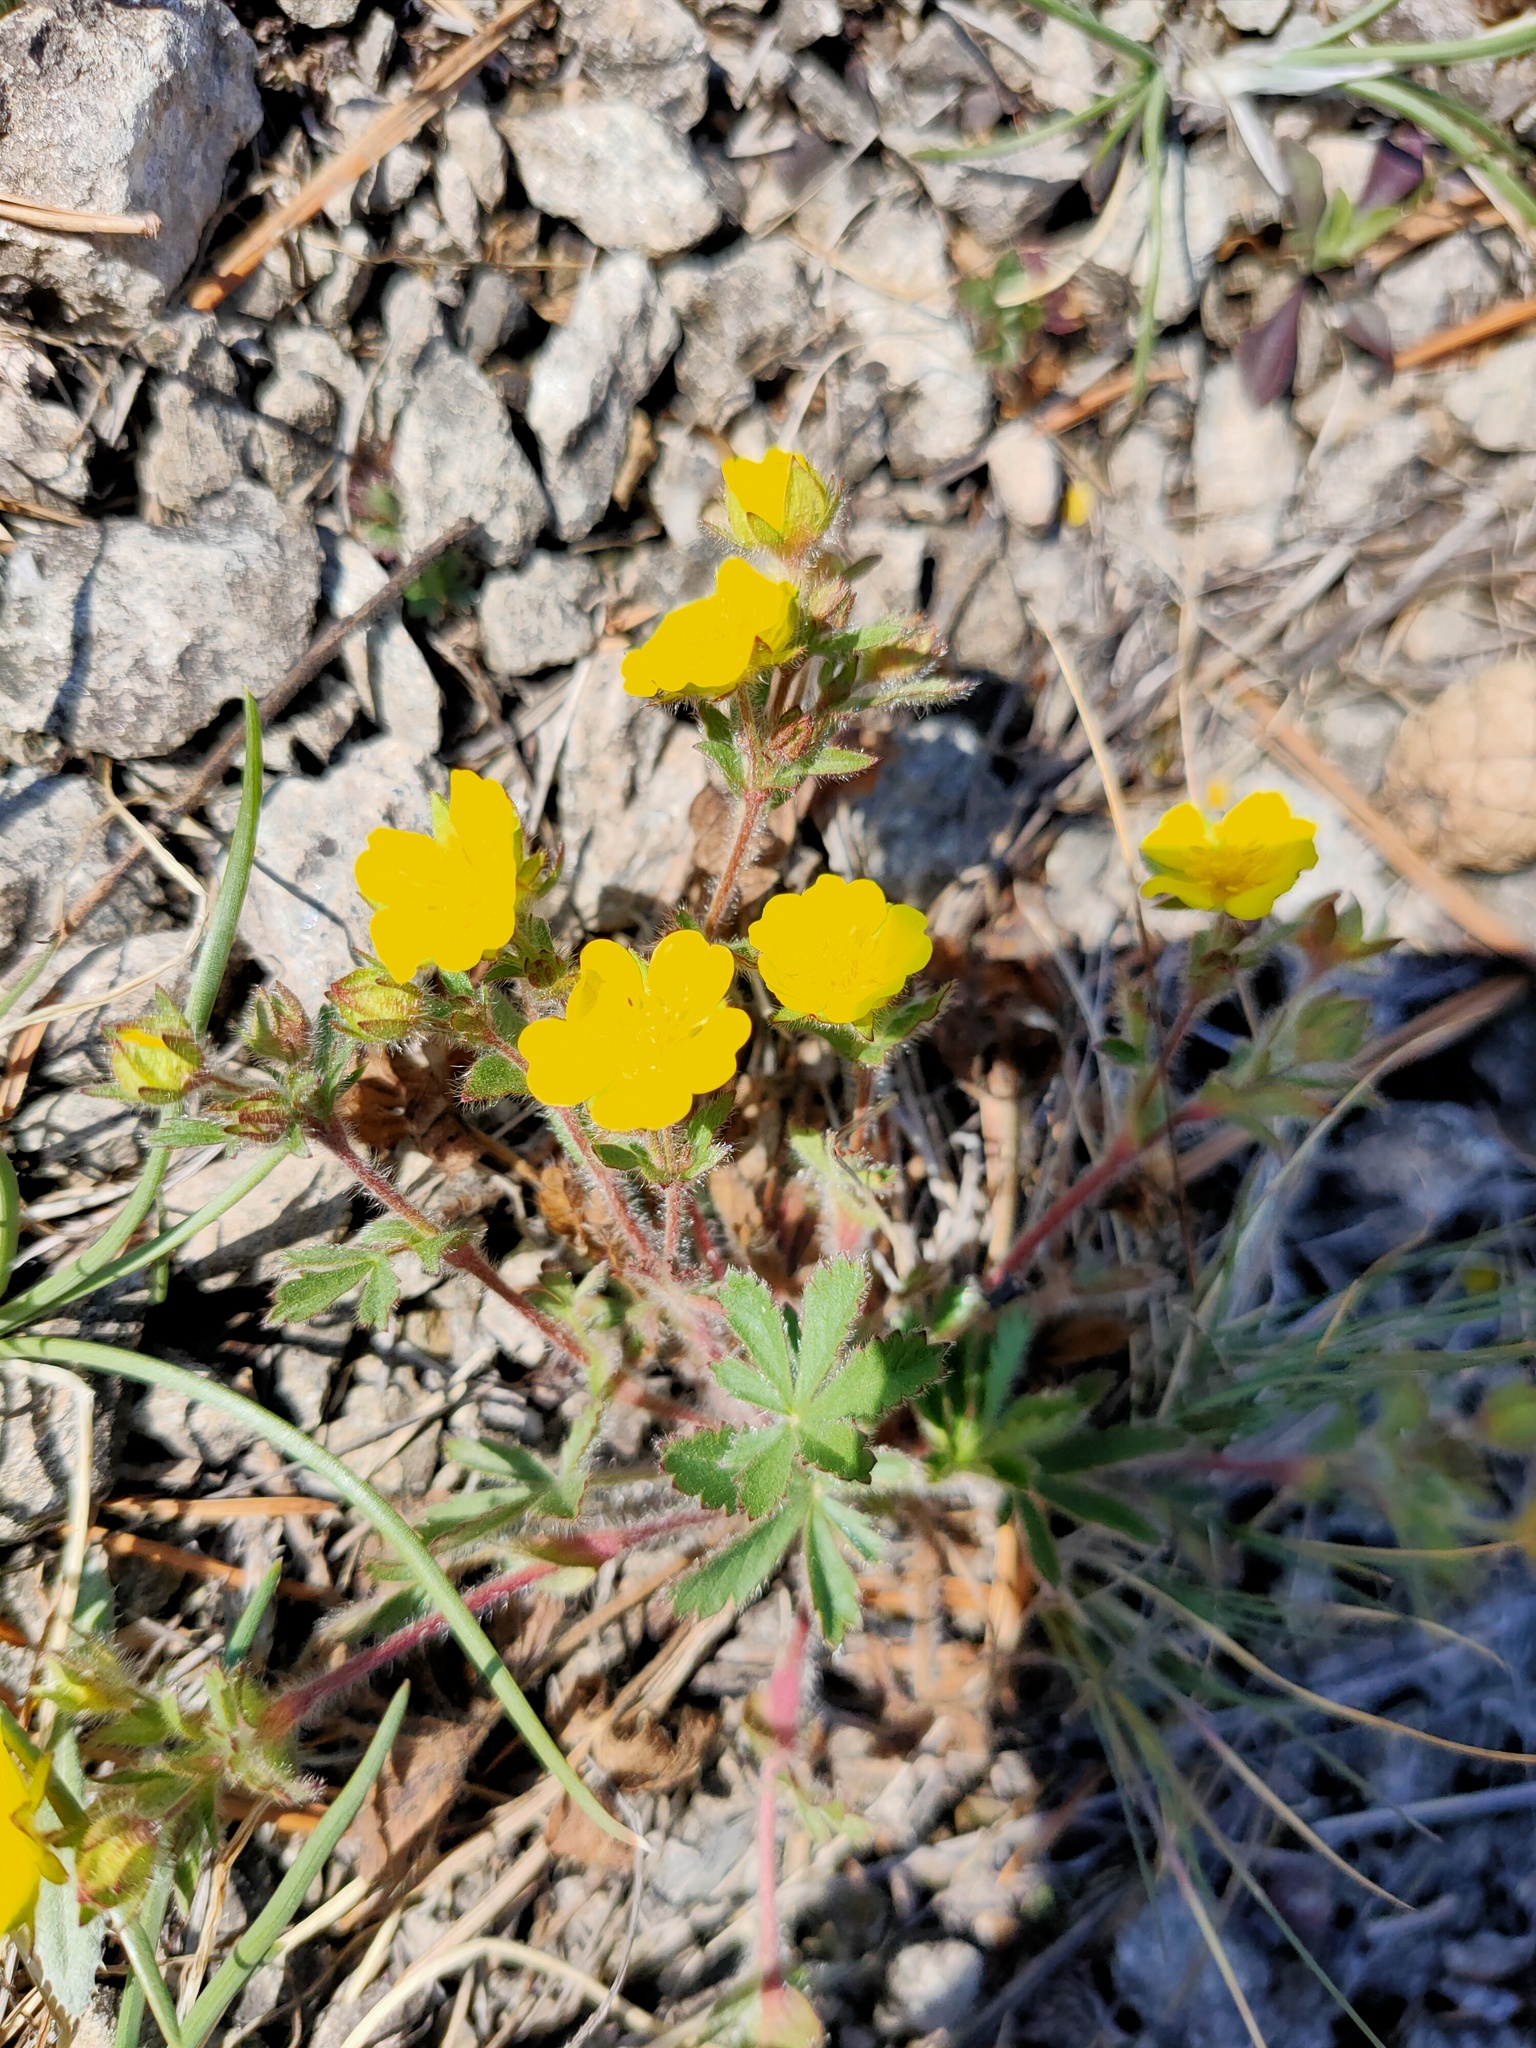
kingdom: Plantae
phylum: Tracheophyta
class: Magnoliopsida
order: Rosales
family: Rosaceae
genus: Potentilla
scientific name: Potentilla humifusa
